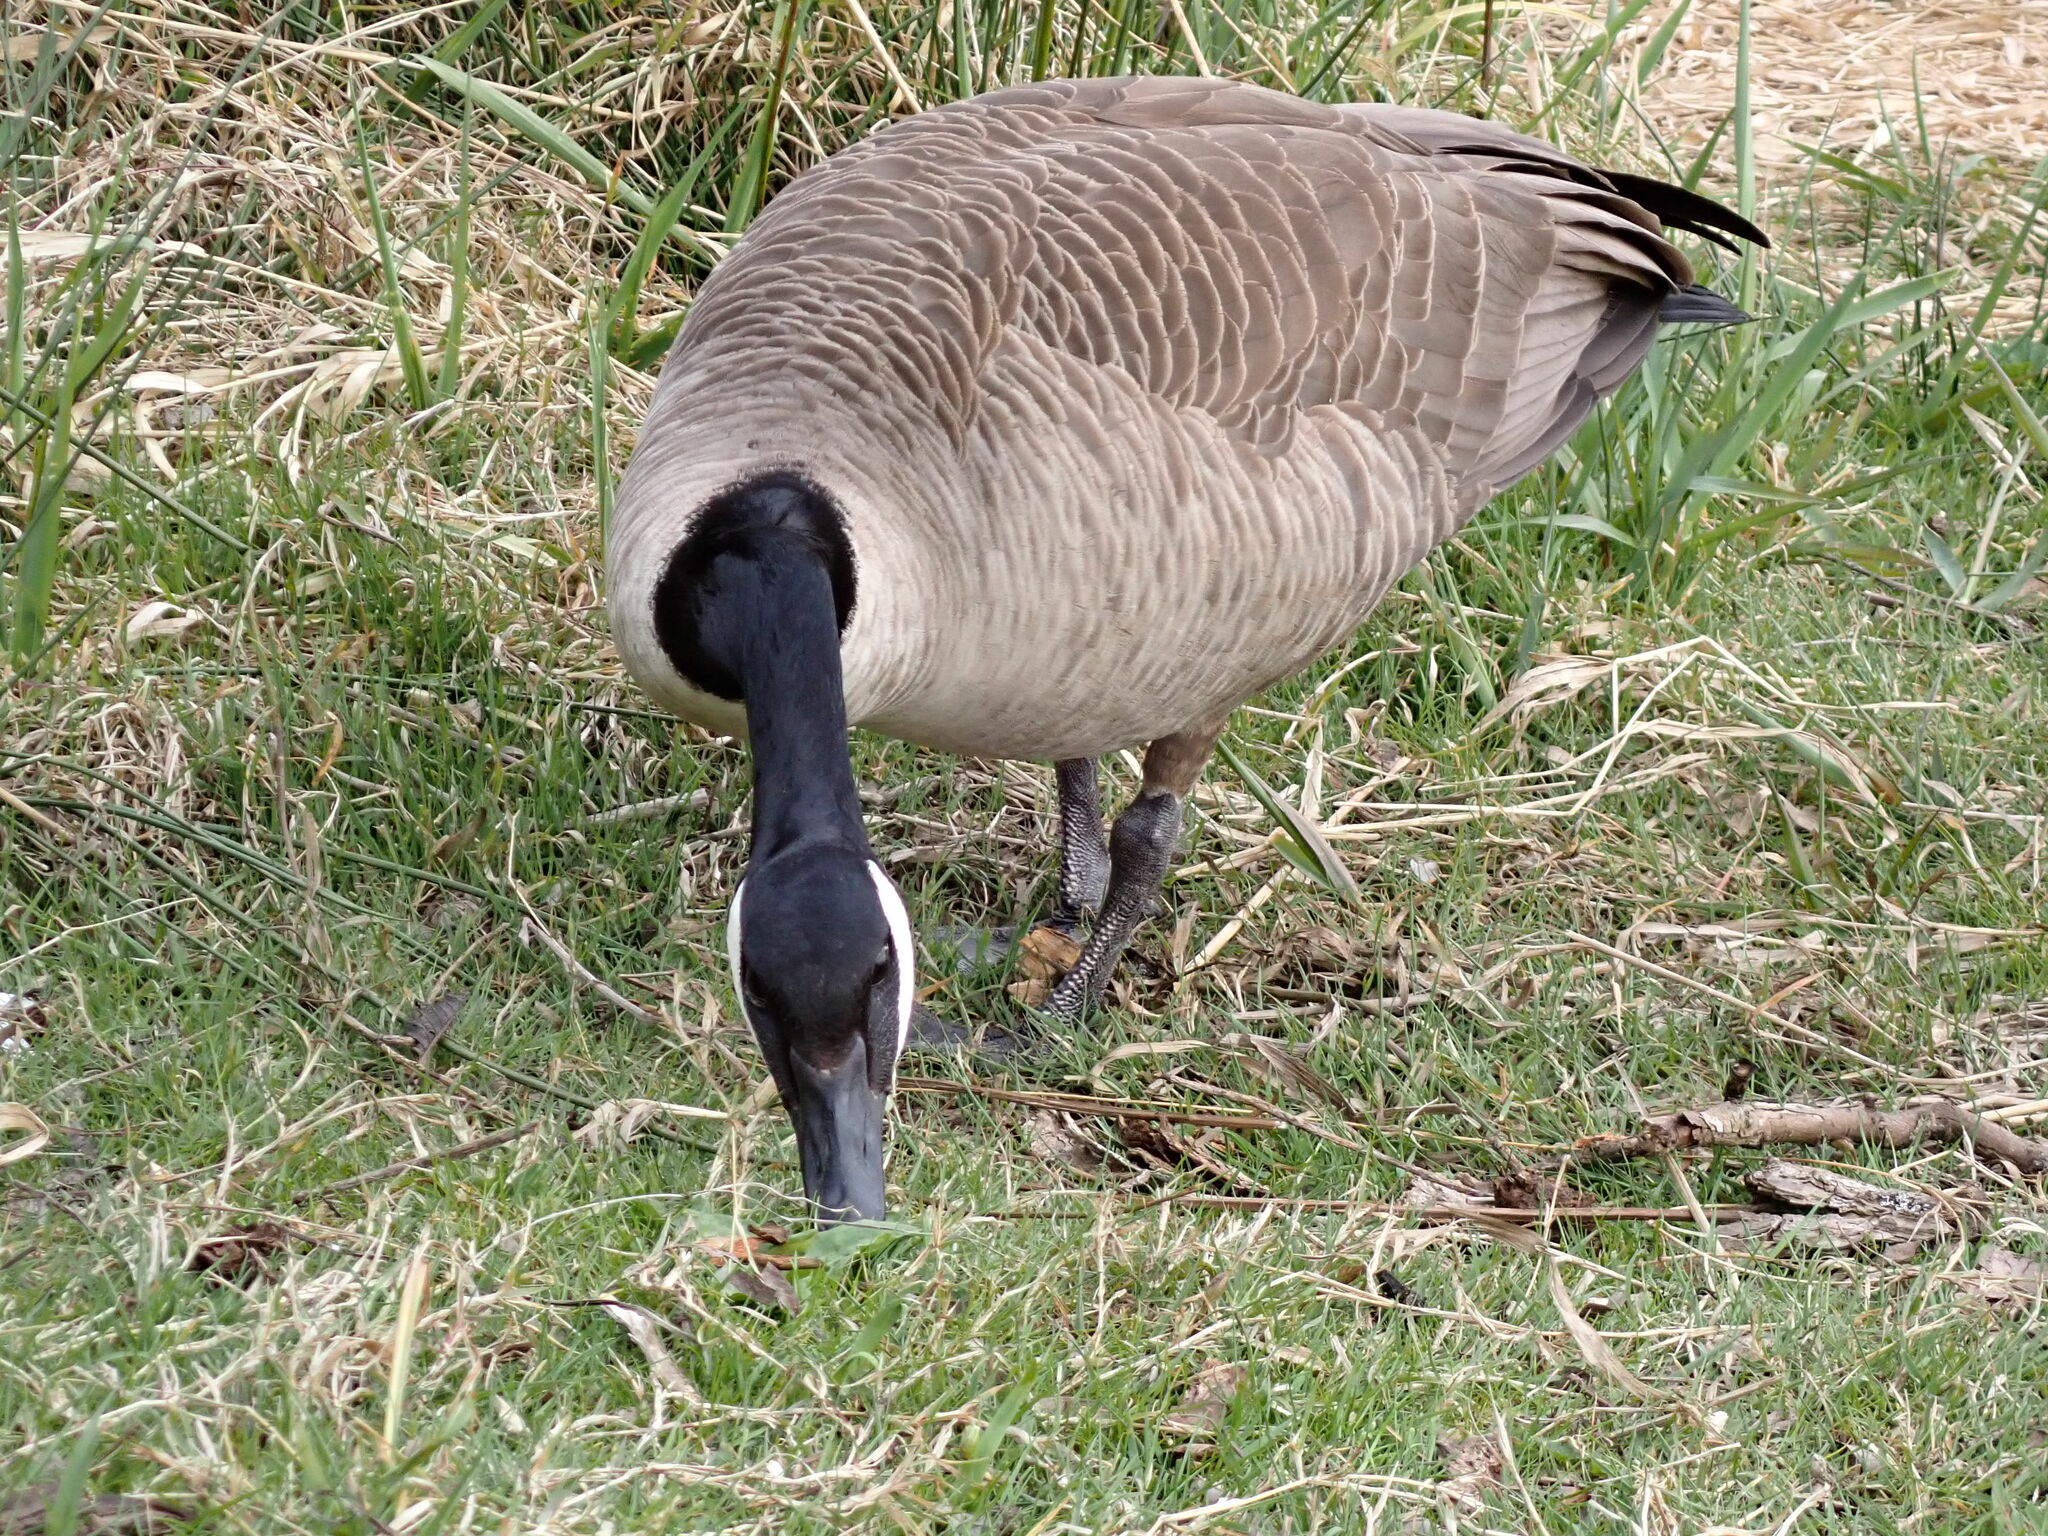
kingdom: Animalia
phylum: Chordata
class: Aves
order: Anseriformes
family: Anatidae
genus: Branta
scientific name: Branta canadensis
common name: Canada goose
